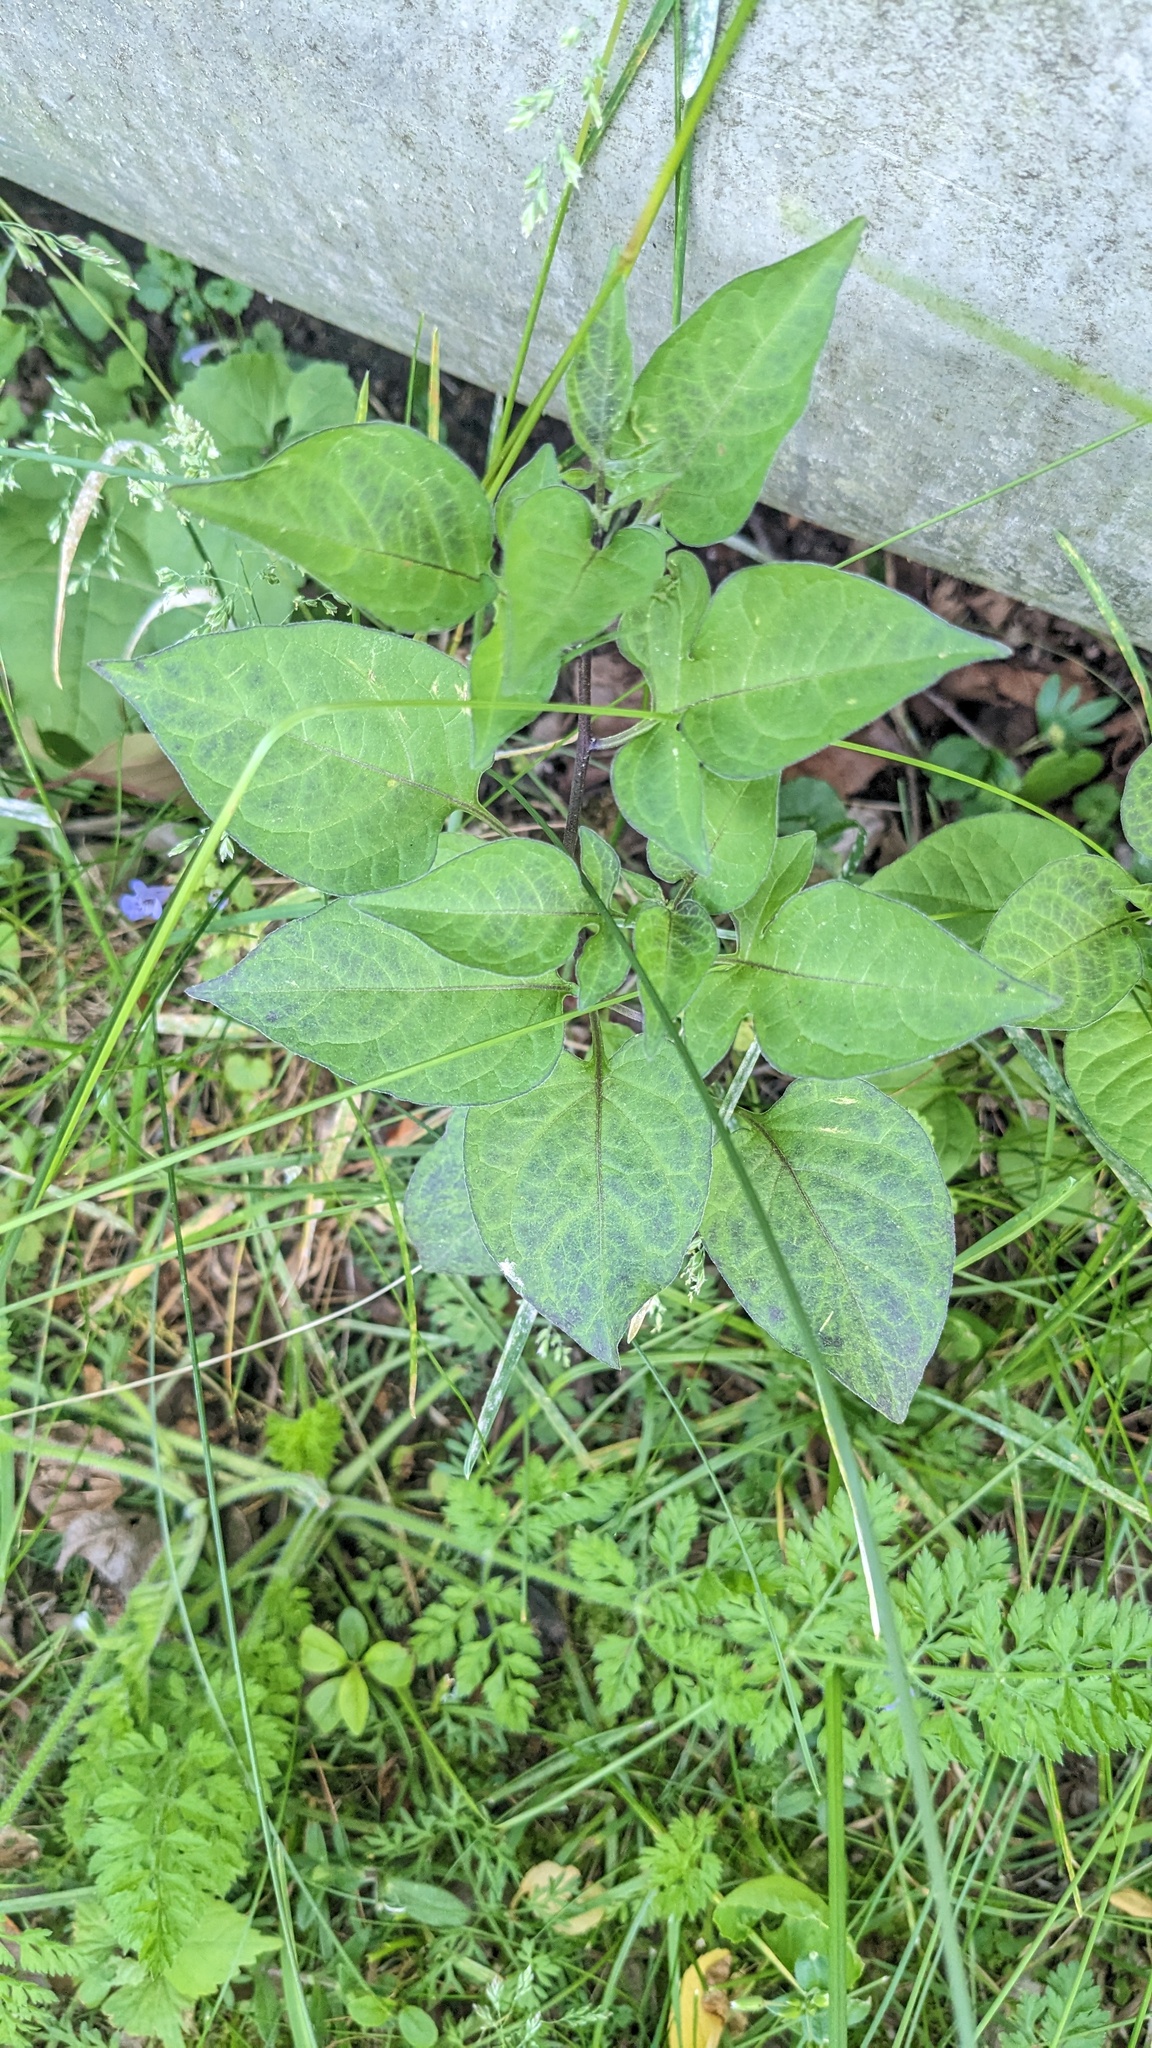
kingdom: Plantae
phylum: Tracheophyta
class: Magnoliopsida
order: Solanales
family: Solanaceae
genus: Solanum
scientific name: Solanum dulcamara
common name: Climbing nightshade
